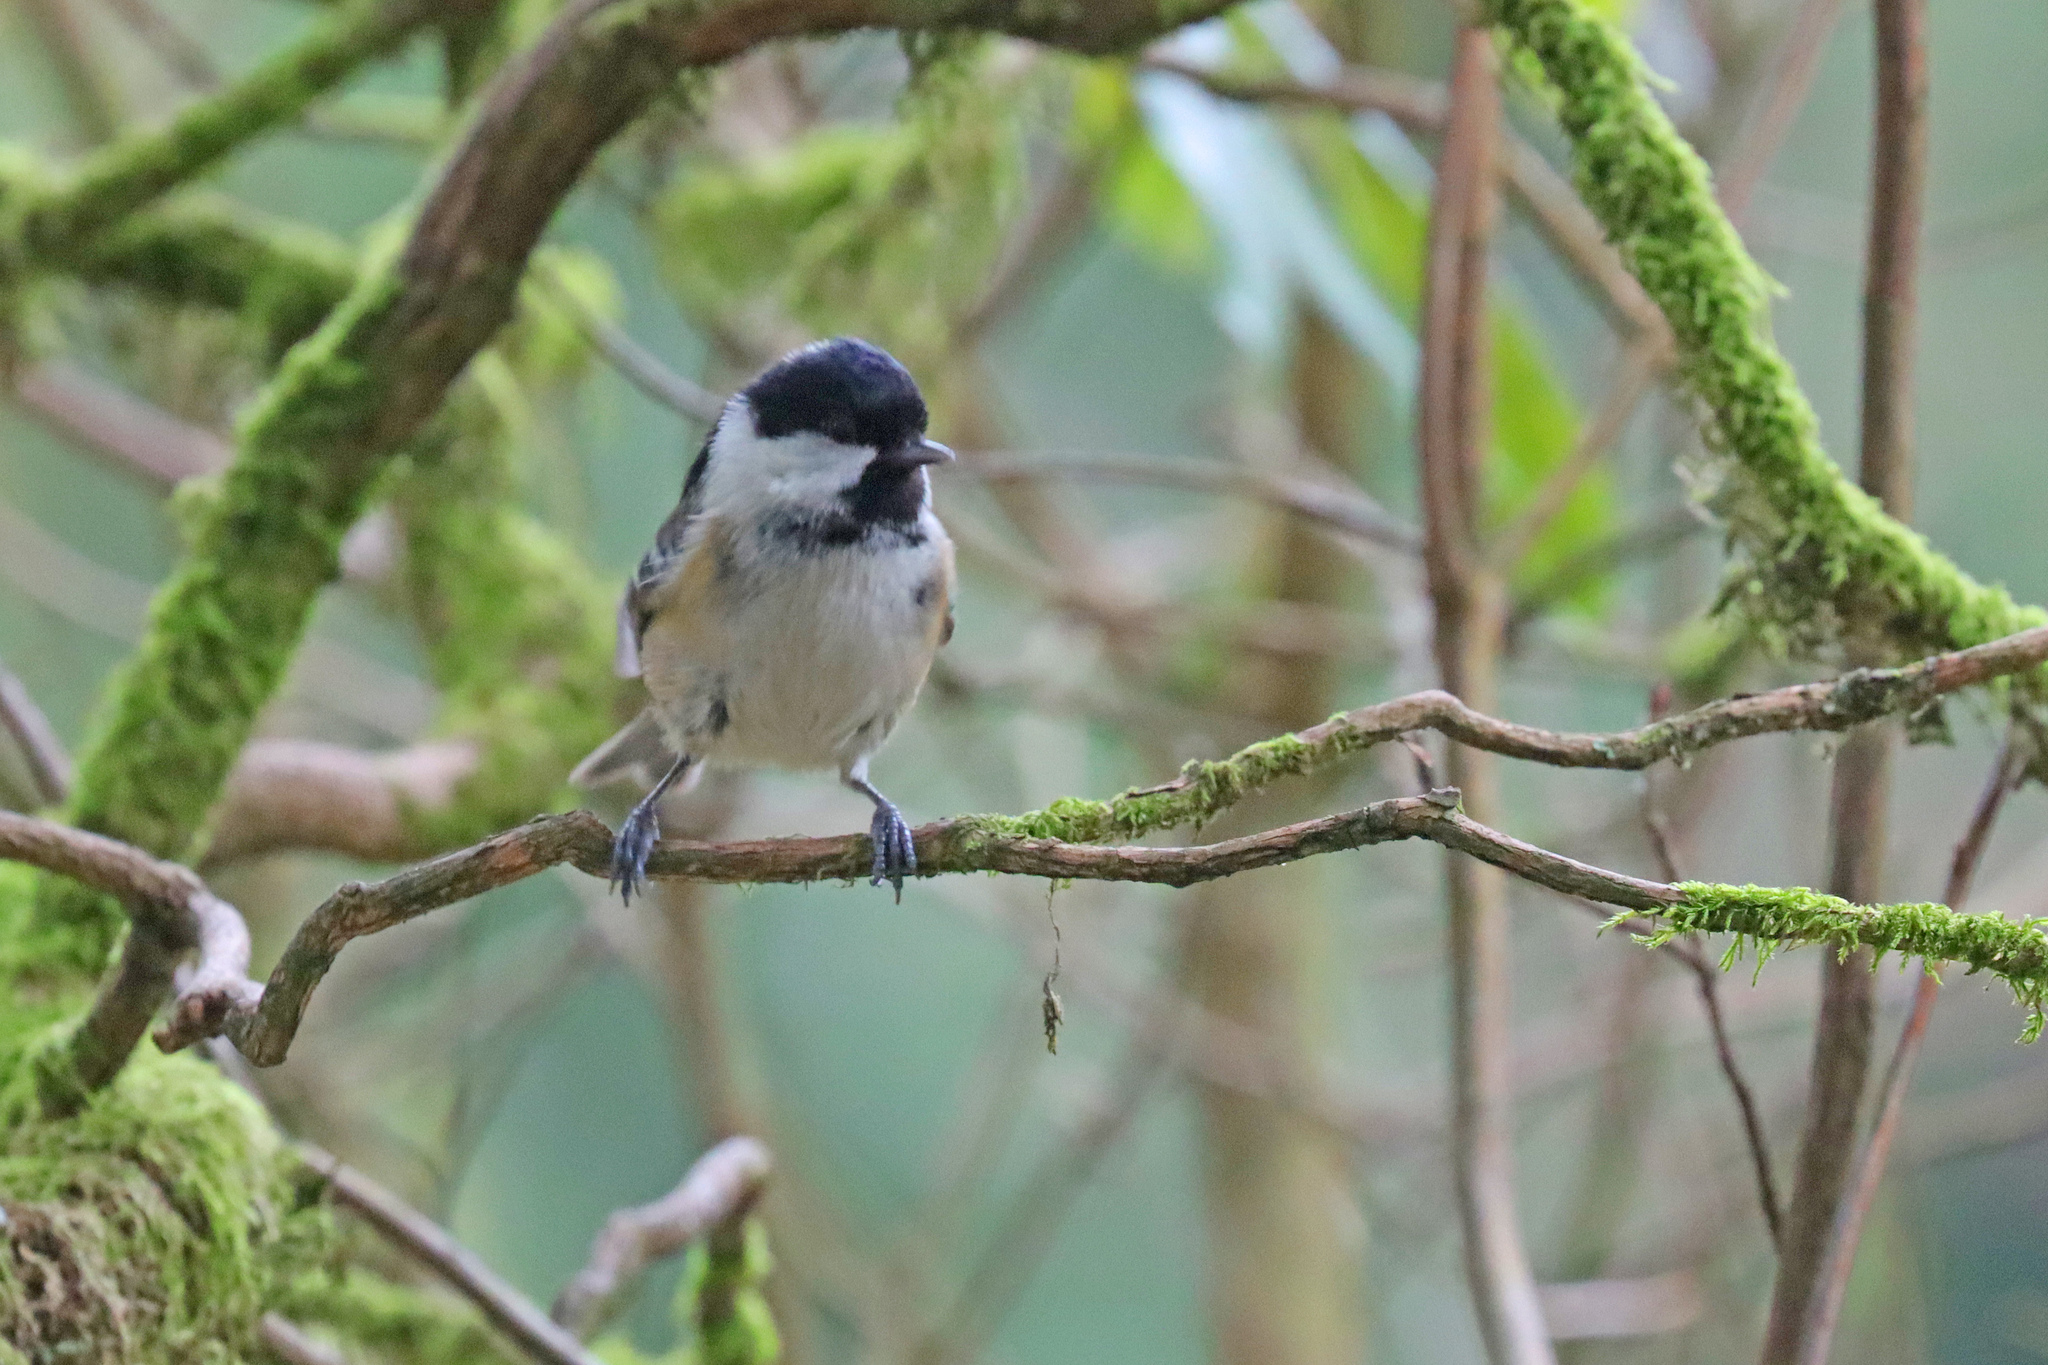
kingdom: Animalia
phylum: Chordata
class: Aves
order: Passeriformes
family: Paridae
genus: Periparus
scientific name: Periparus ater
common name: Coal tit
